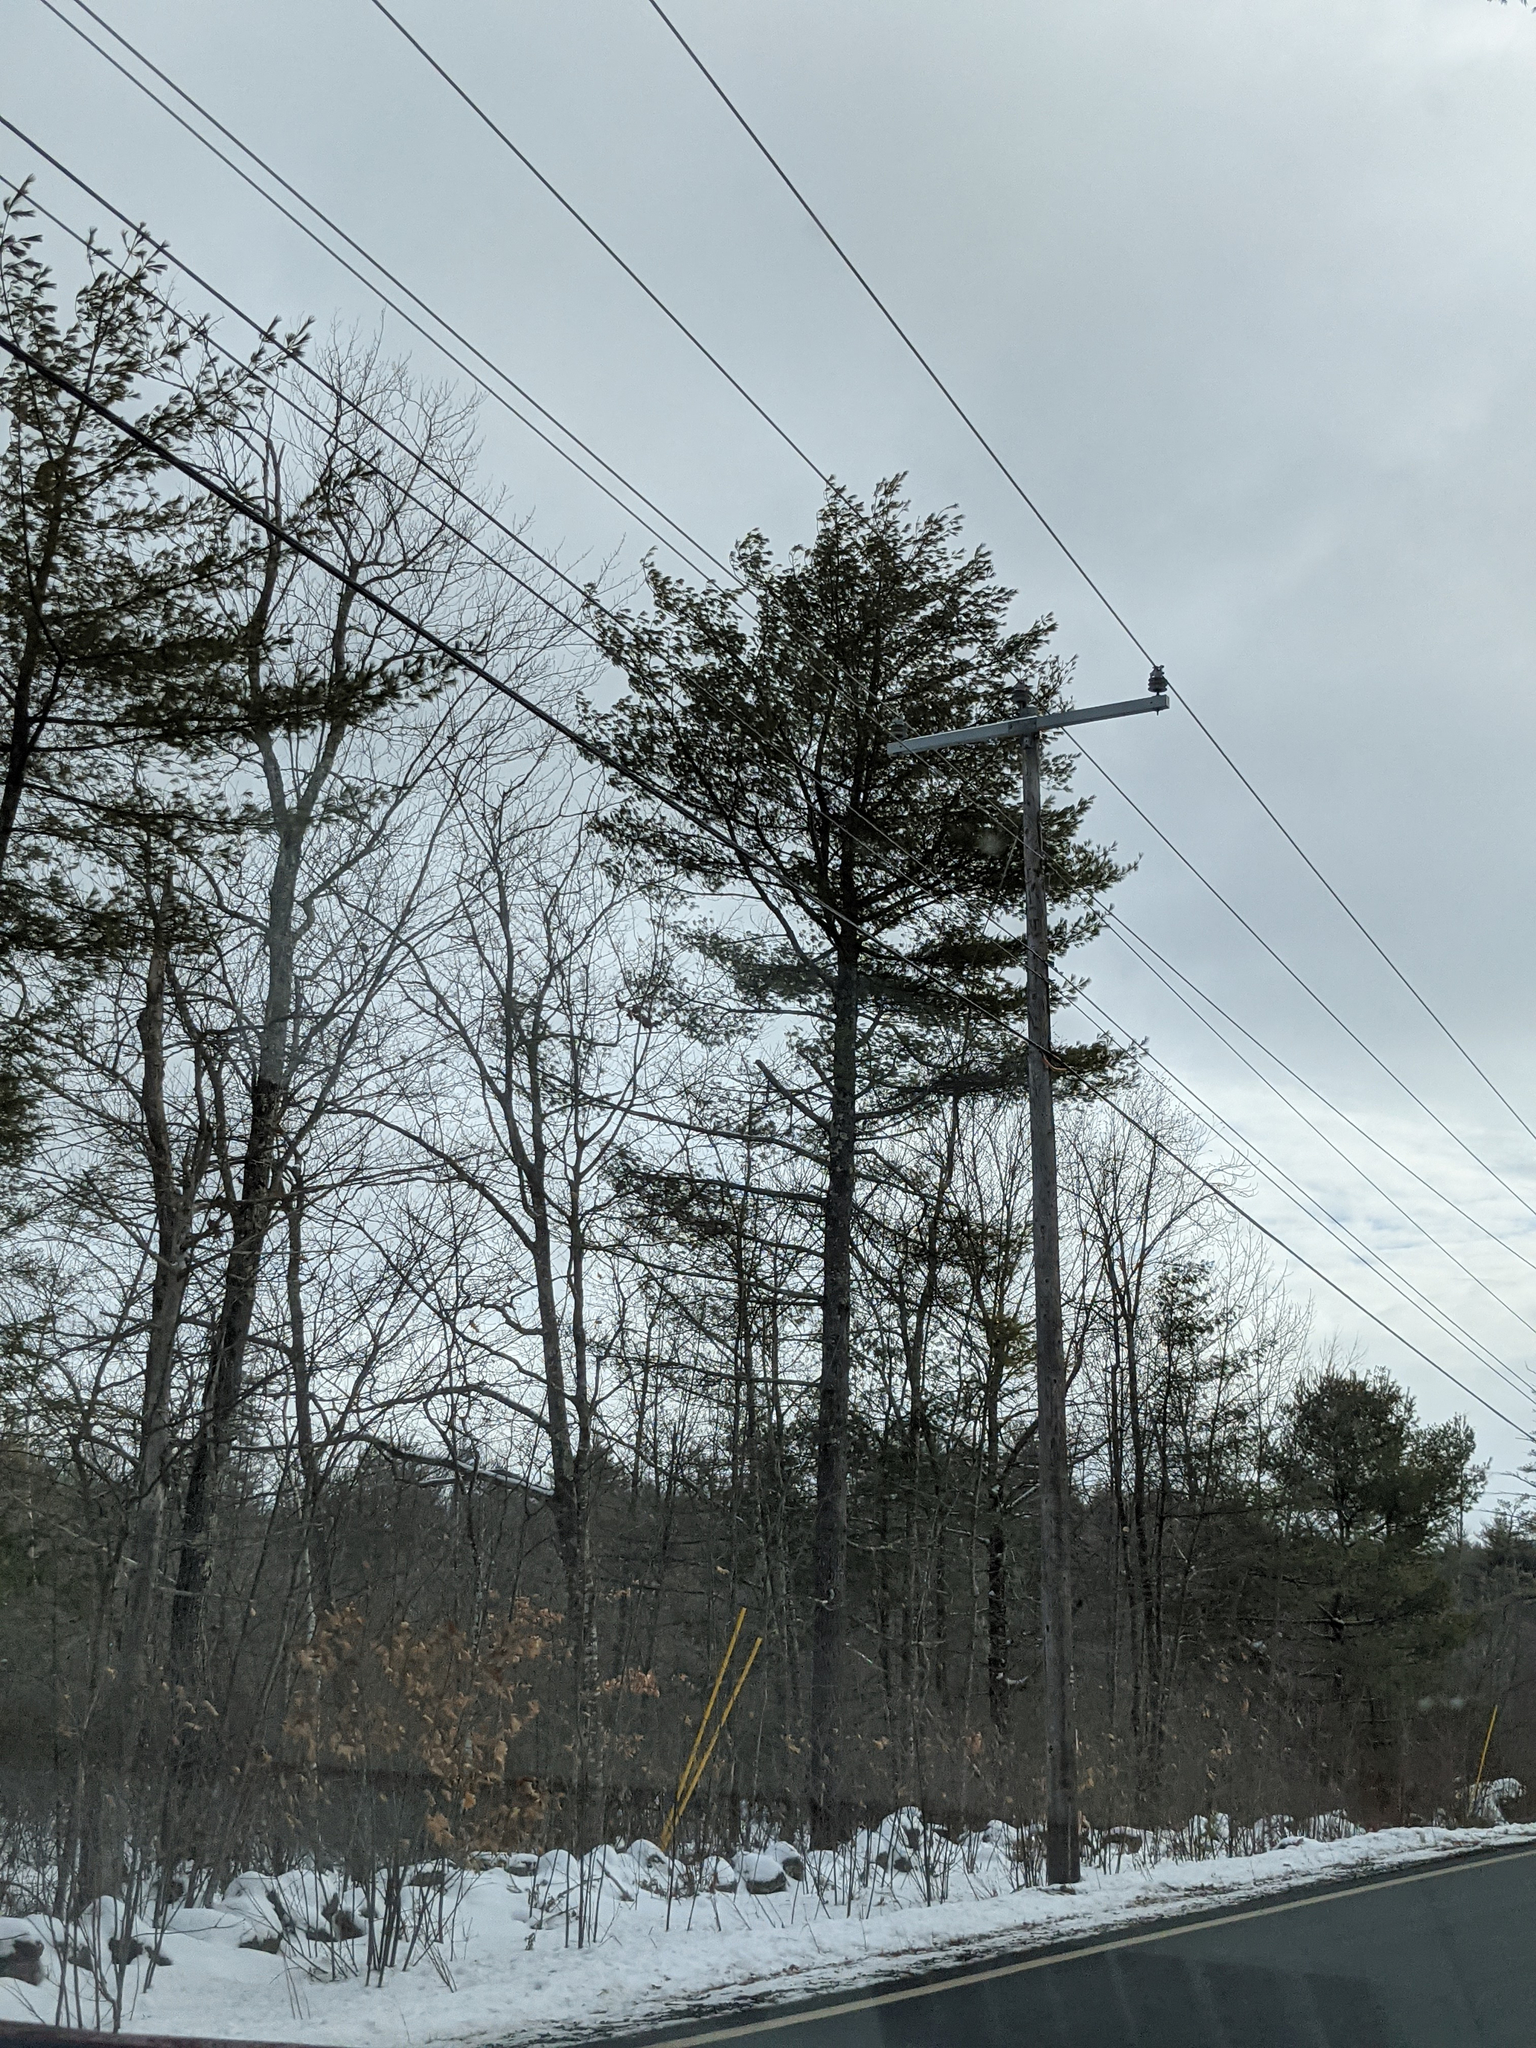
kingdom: Plantae
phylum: Tracheophyta
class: Pinopsida
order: Pinales
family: Pinaceae
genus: Pinus
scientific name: Pinus strobus
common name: Weymouth pine
